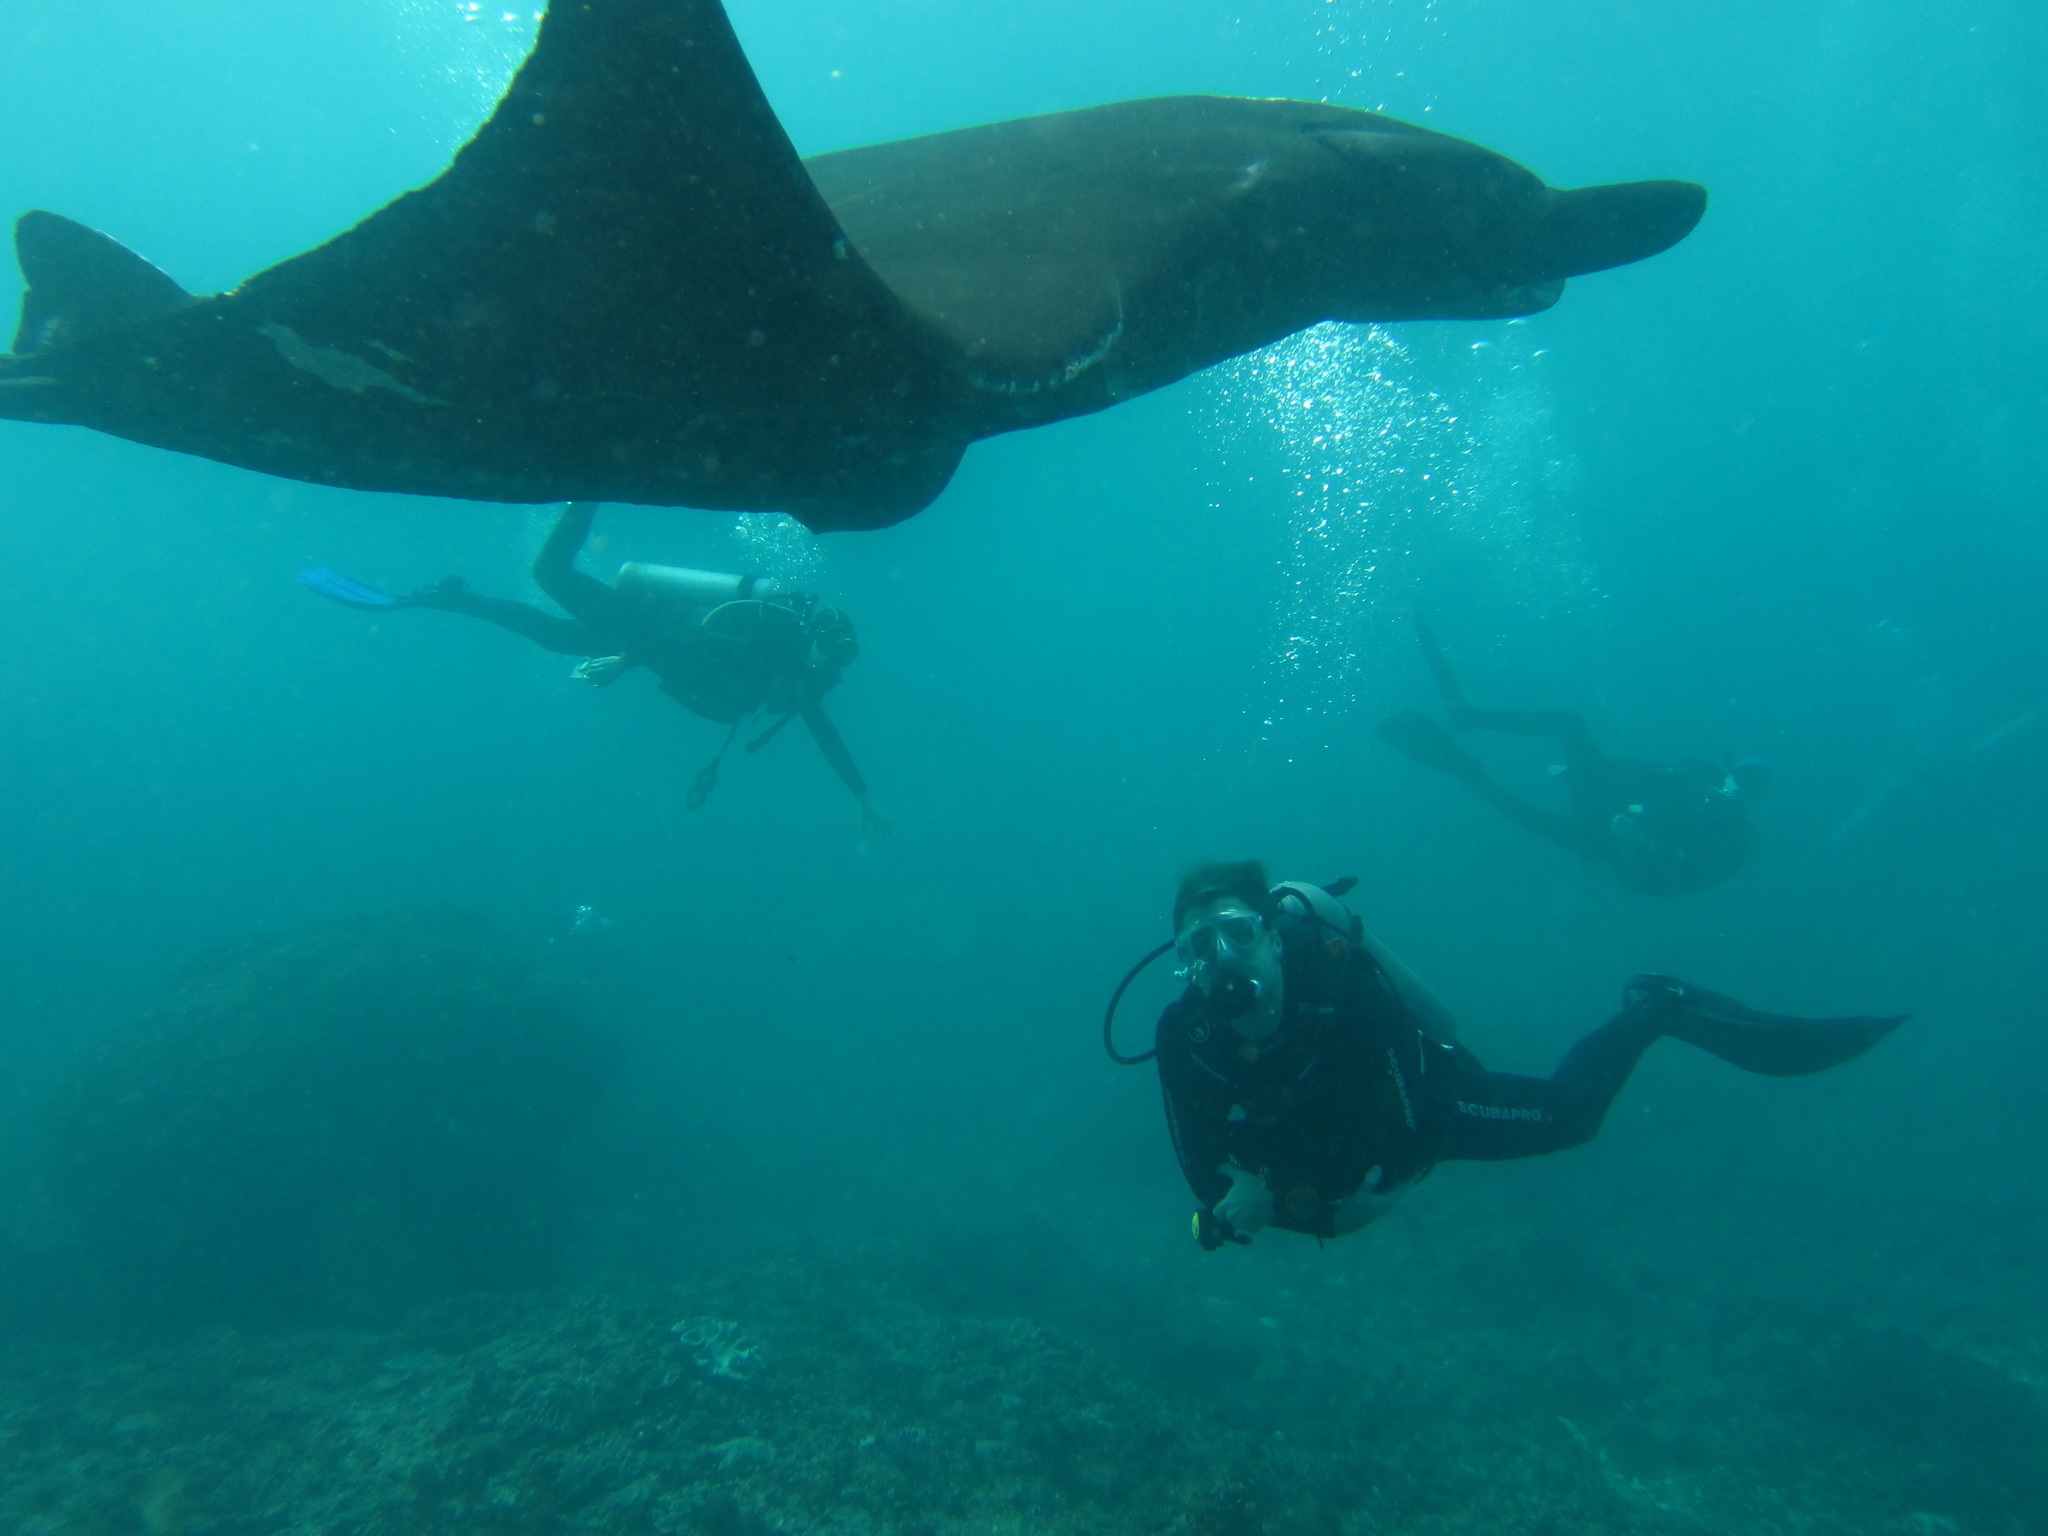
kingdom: Animalia
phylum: Chordata
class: Elasmobranchii
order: Myliobatiformes
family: Myliobatidae
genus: Mobula
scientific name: Mobula alfredi
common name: Reef manta ray
